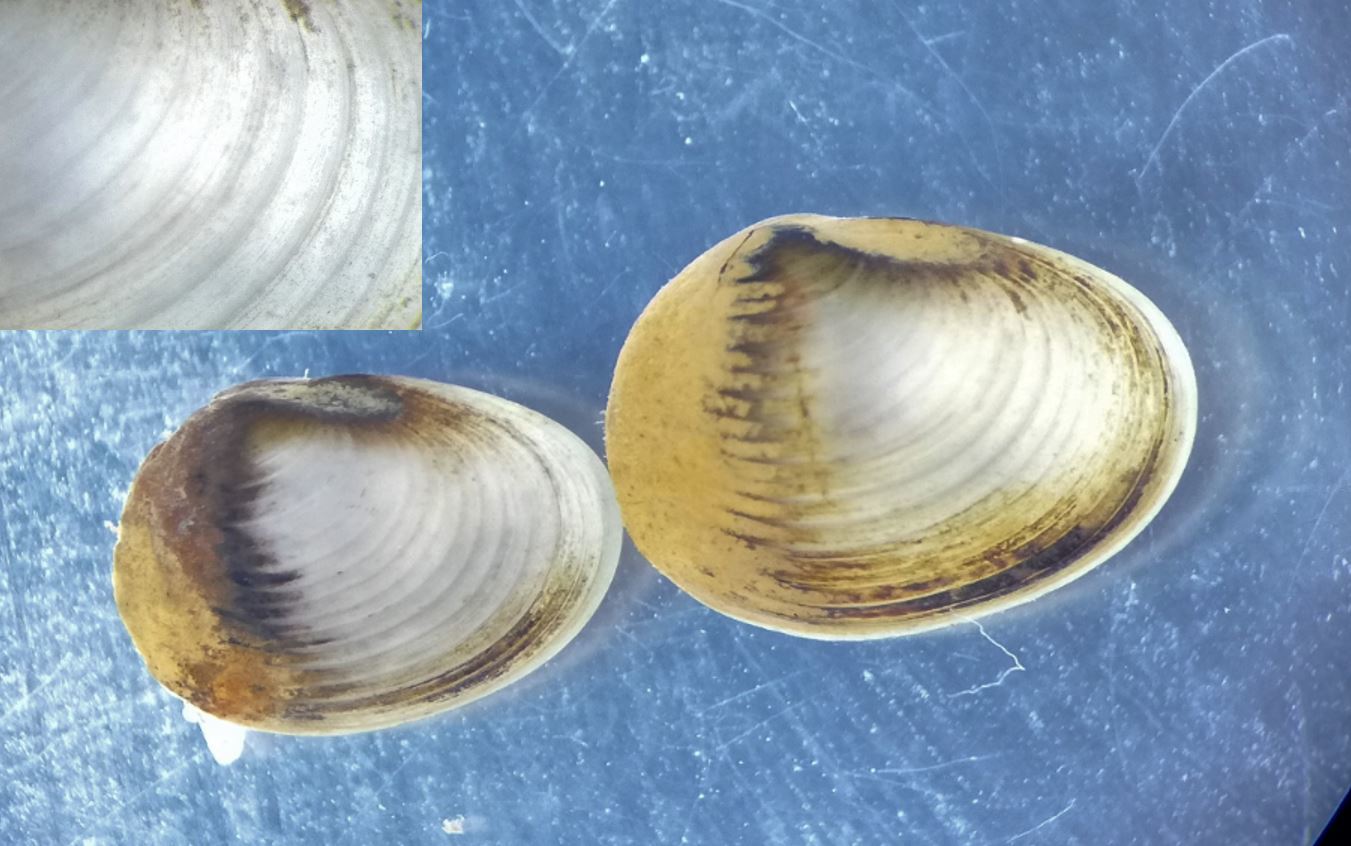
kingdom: Animalia
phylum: Mollusca
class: Bivalvia
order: Sphaeriida
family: Sphaeriidae
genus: Pisidium
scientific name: Pisidium amnicum
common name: Greater european peaclam
